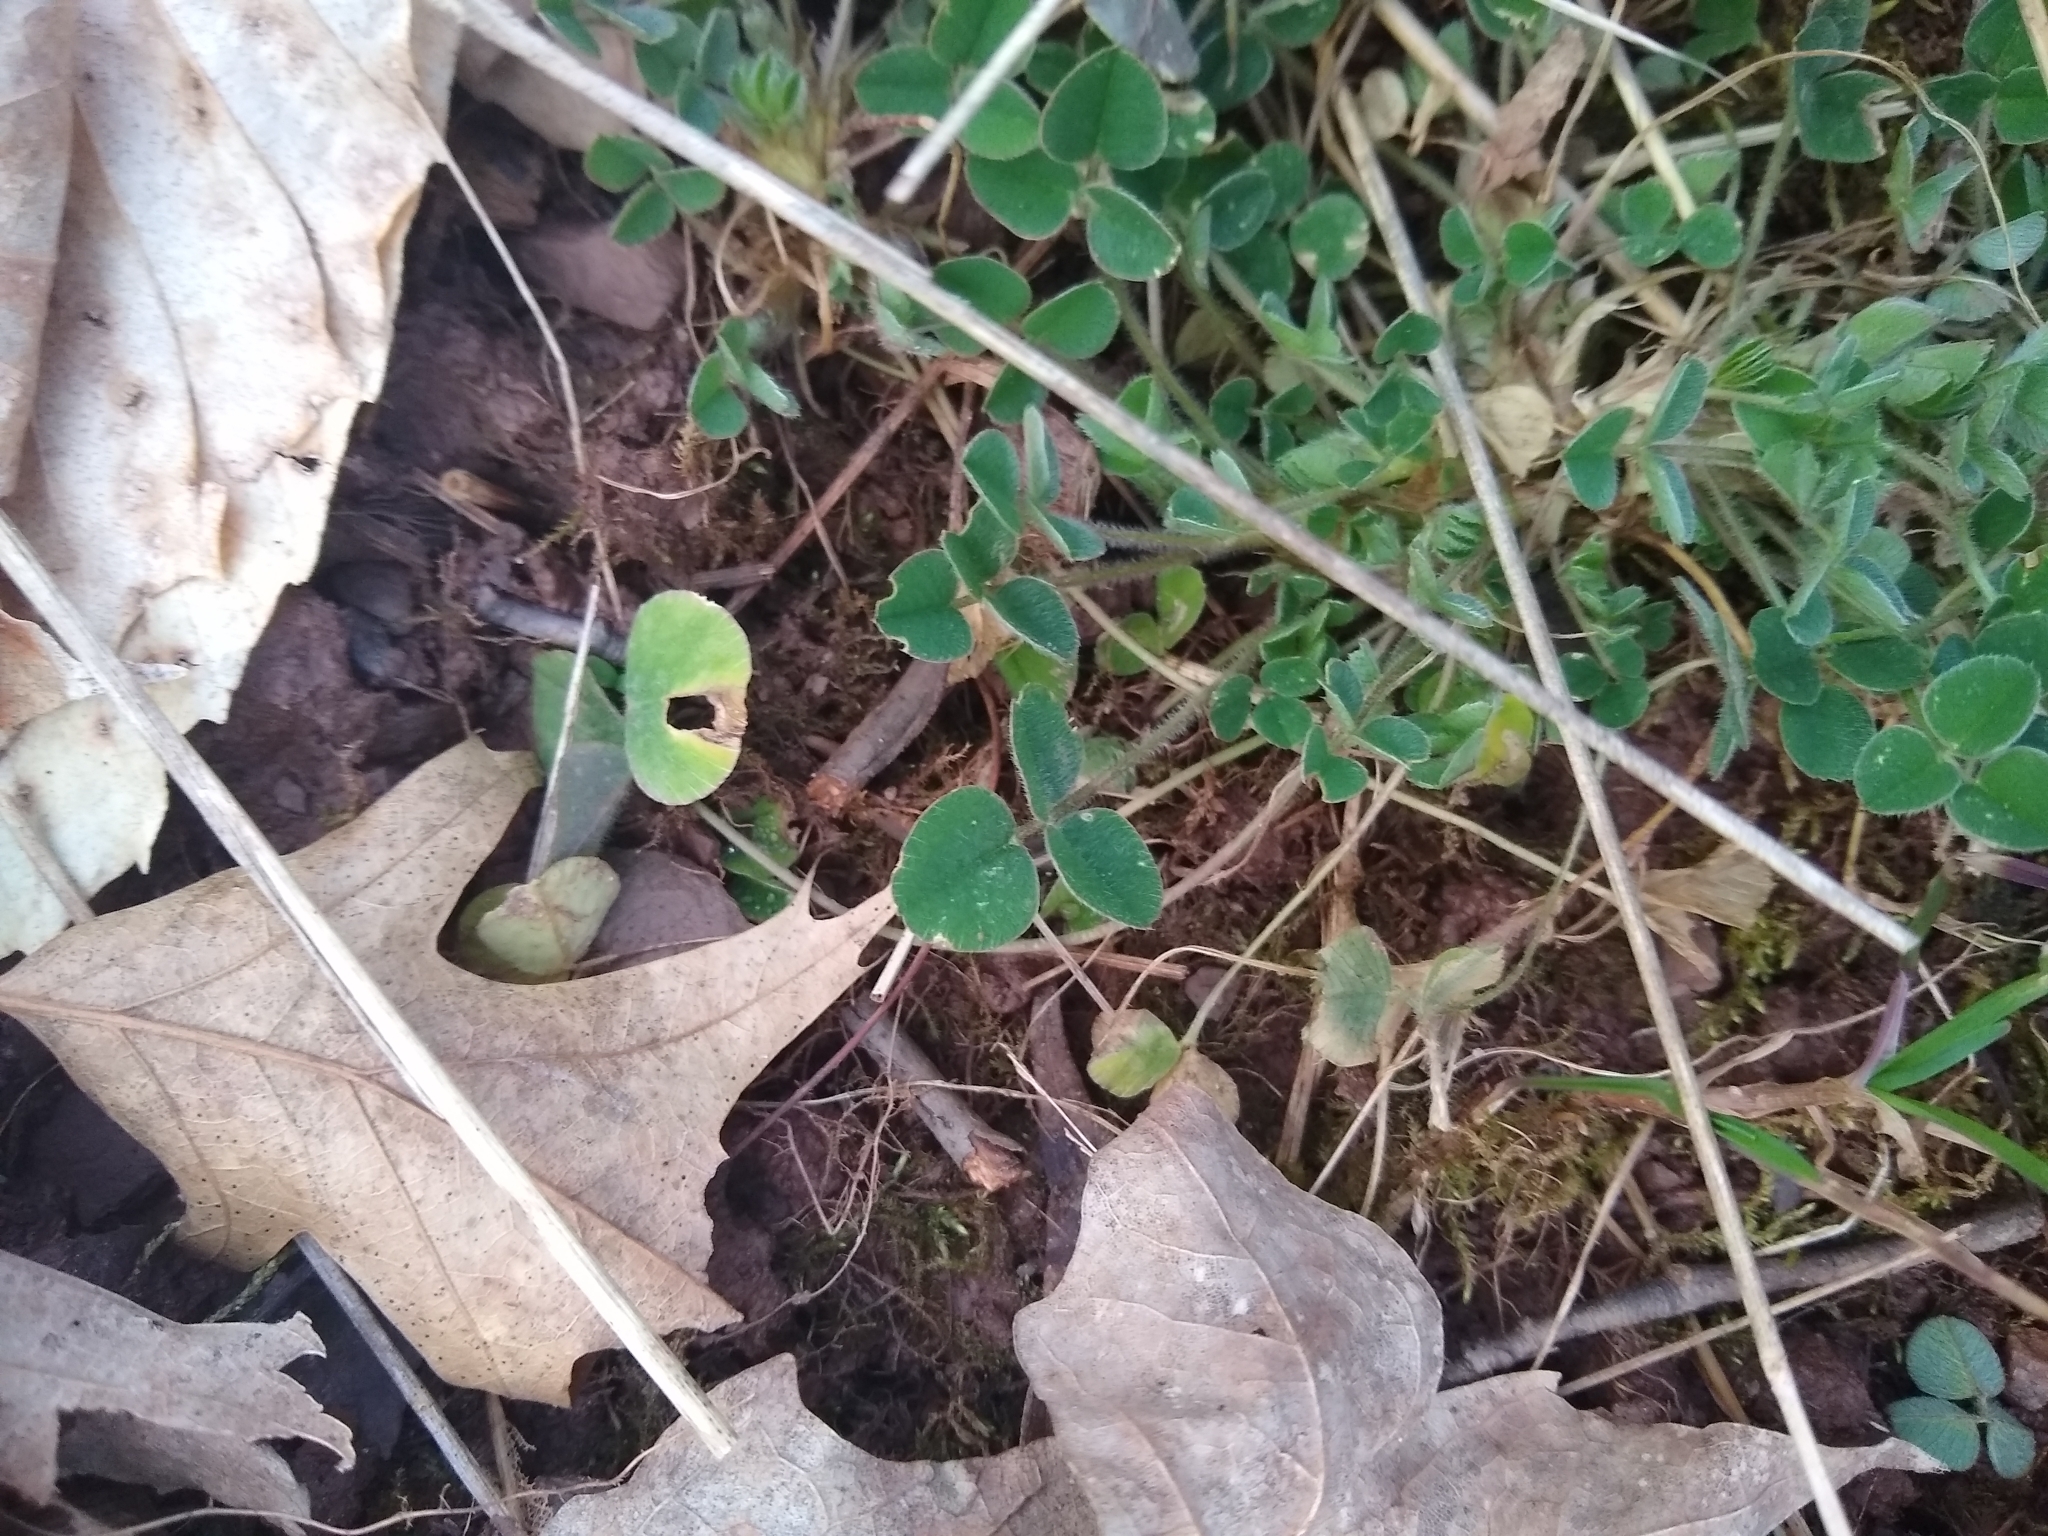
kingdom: Plantae
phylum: Tracheophyta
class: Magnoliopsida
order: Fabales
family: Fabaceae
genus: Medicago
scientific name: Medicago lupulina
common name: Black medick
